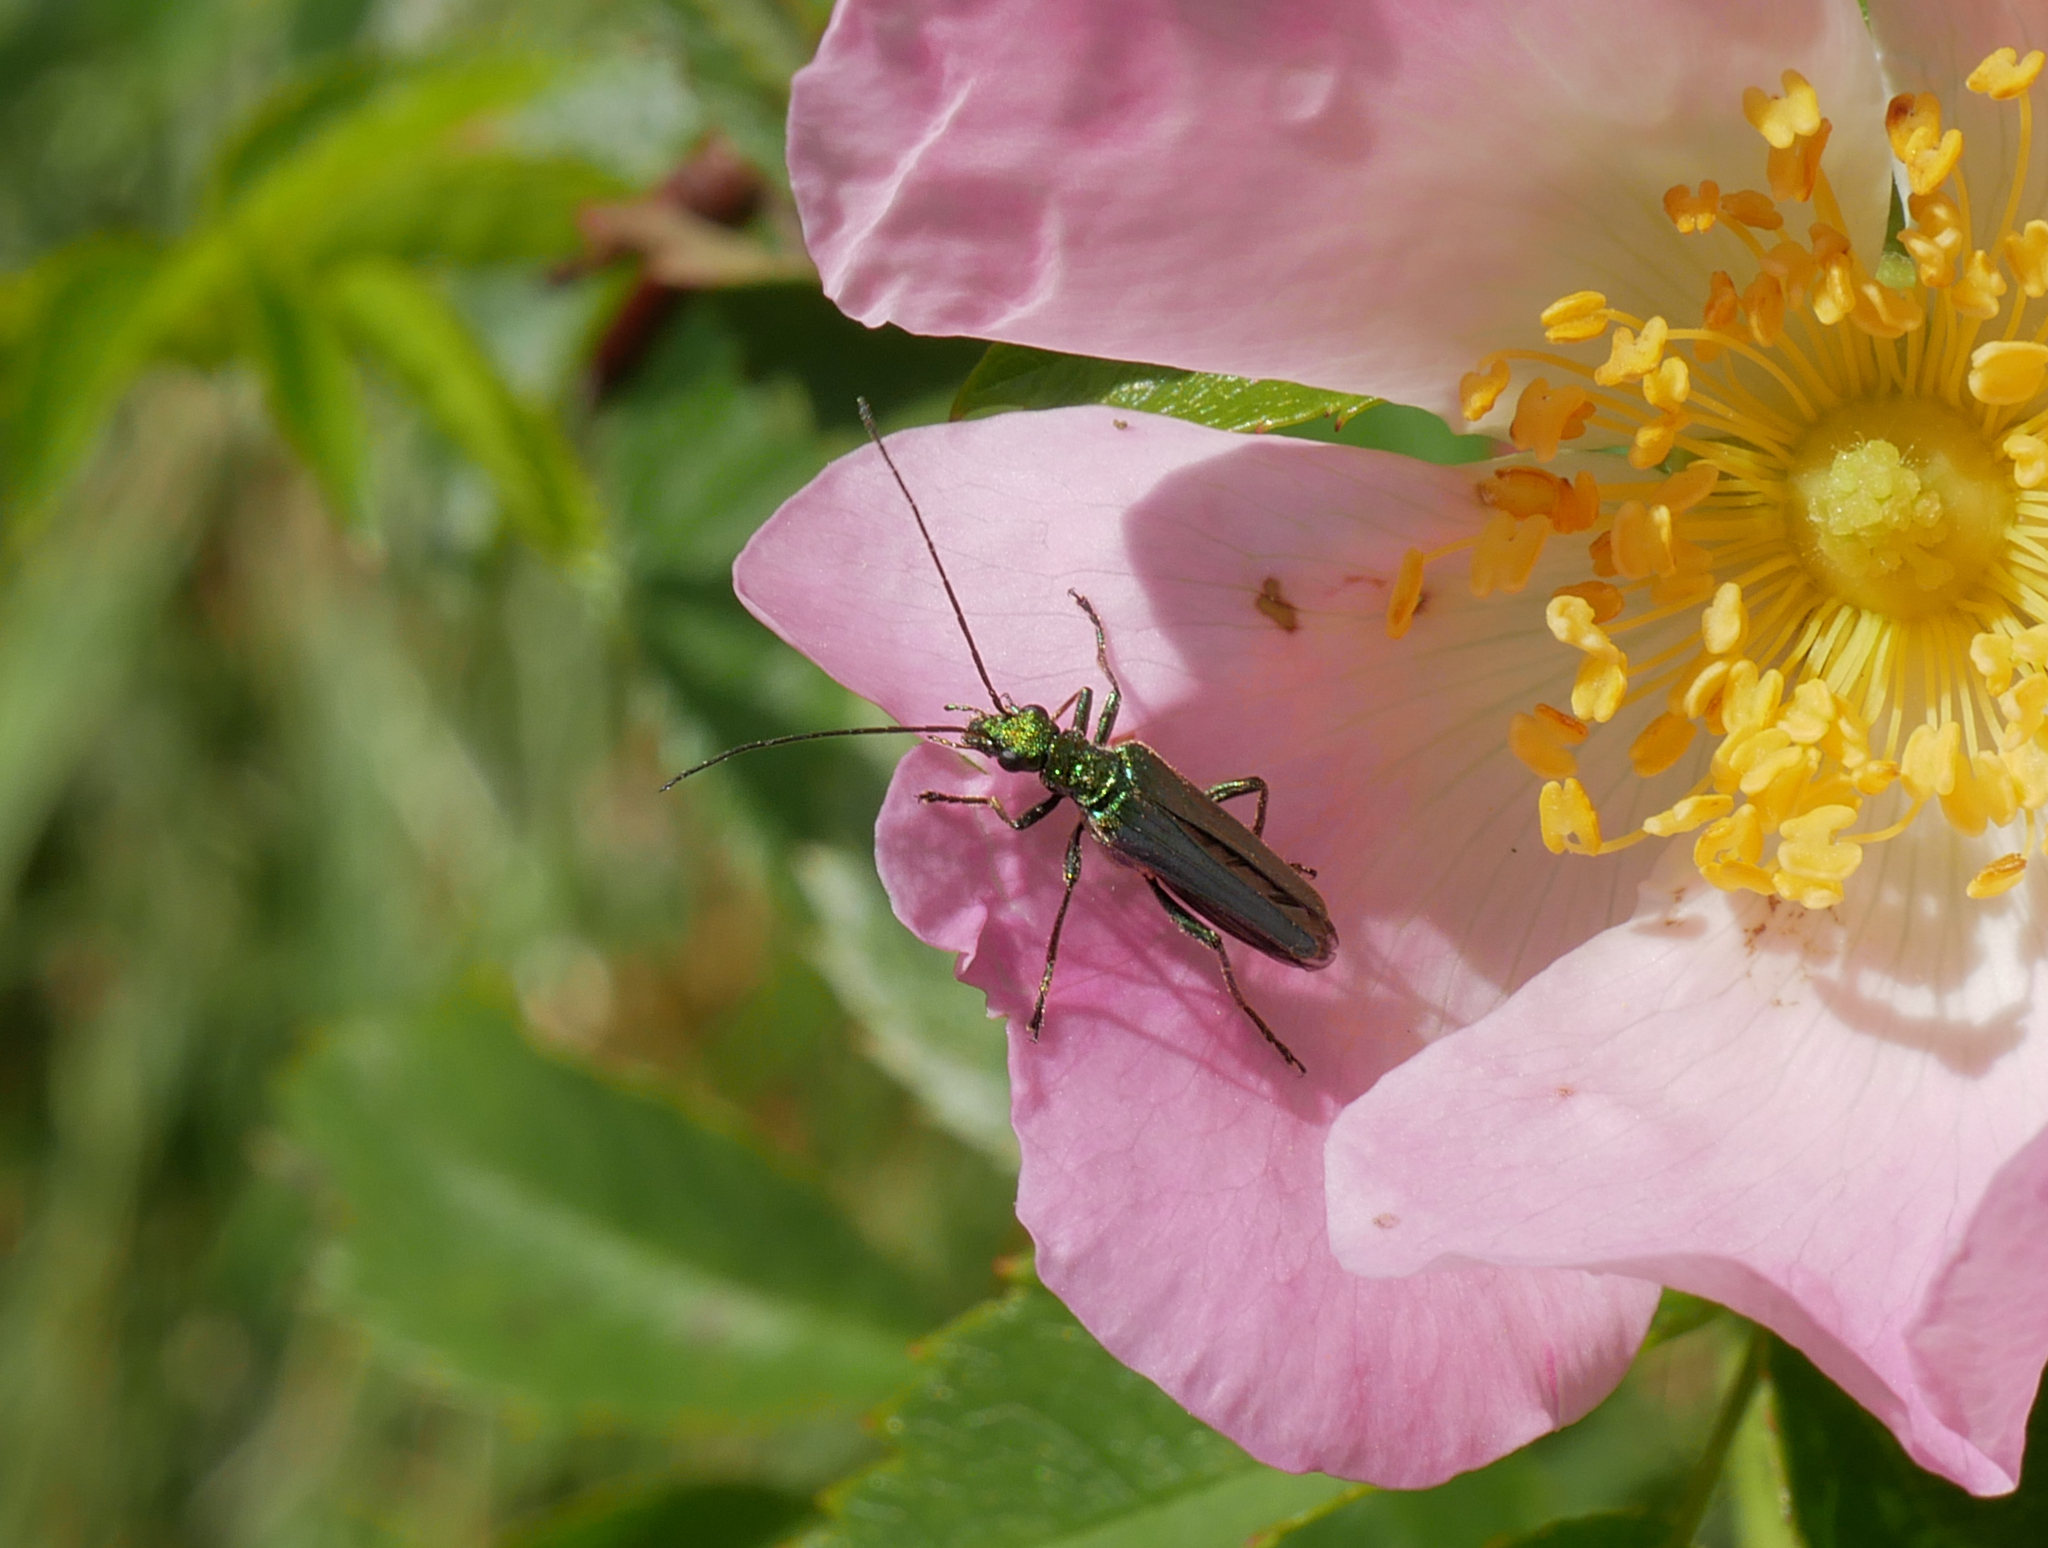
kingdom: Animalia
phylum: Arthropoda
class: Insecta
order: Coleoptera
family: Oedemeridae
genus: Oedemera
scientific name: Oedemera nobilis
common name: Swollen-thighed beetle
